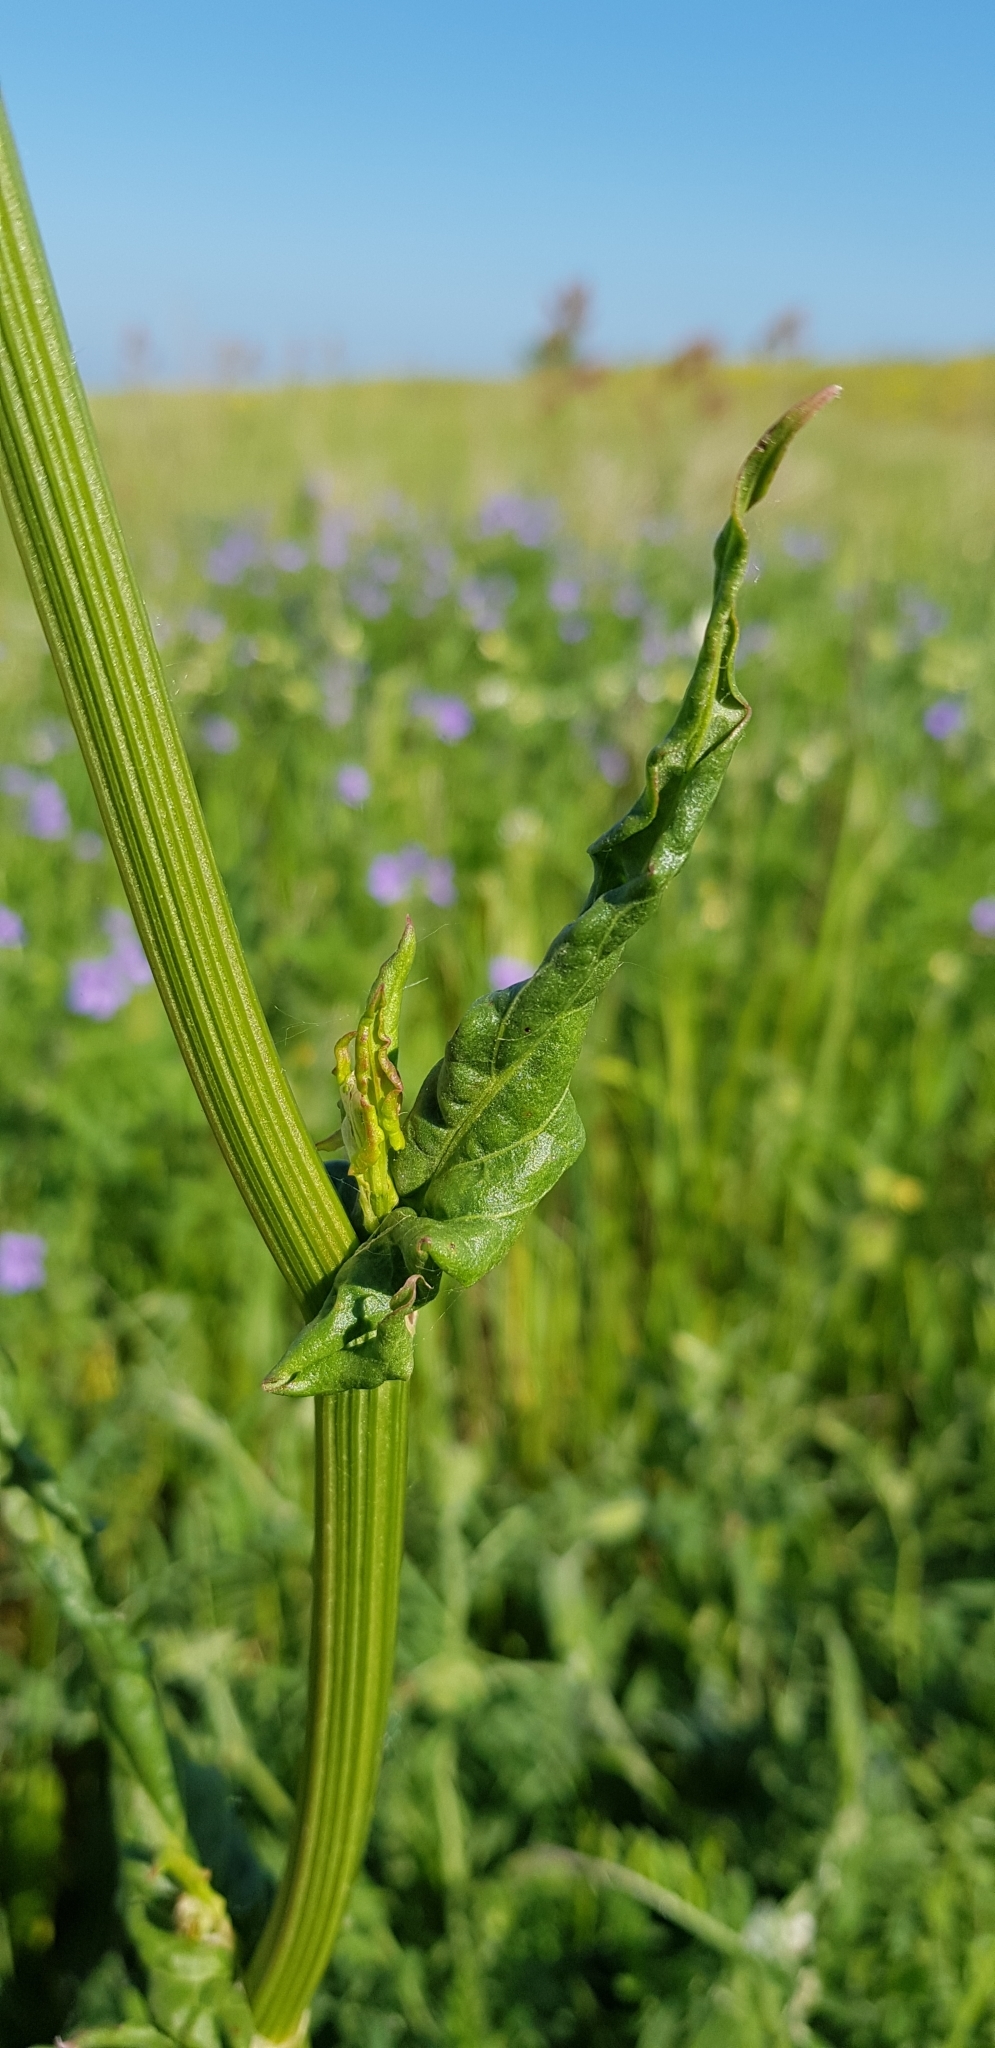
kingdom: Plantae
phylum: Tracheophyta
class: Magnoliopsida
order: Caryophyllales
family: Polygonaceae
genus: Rumex
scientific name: Rumex tuberosus
